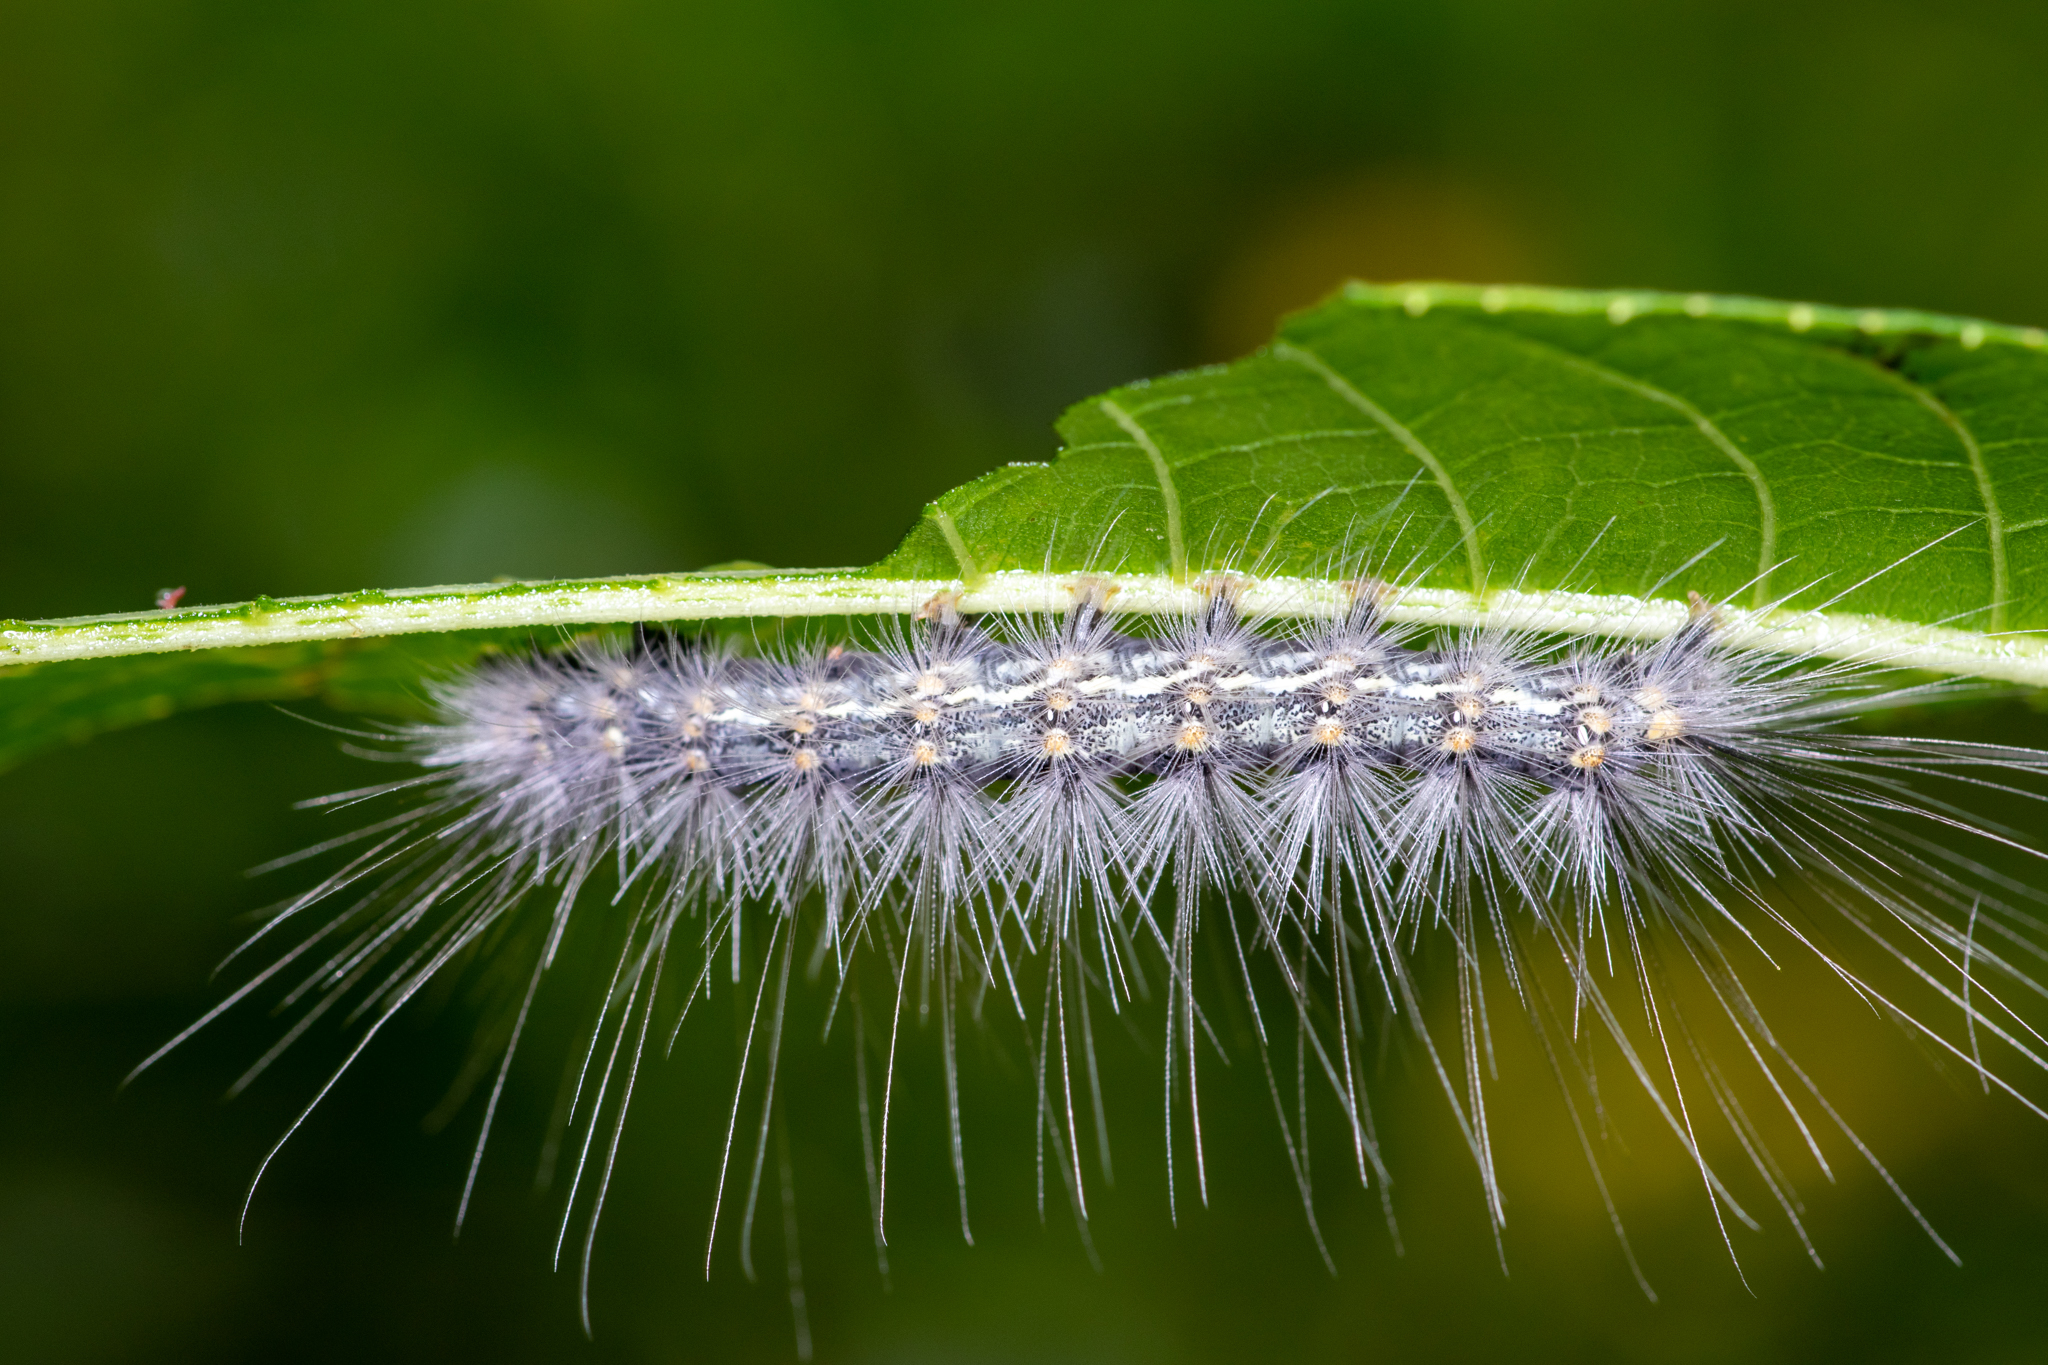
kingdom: Animalia
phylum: Arthropoda
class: Insecta
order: Lepidoptera
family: Erebidae
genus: Hyphantria
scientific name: Hyphantria cunea
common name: American white moth
